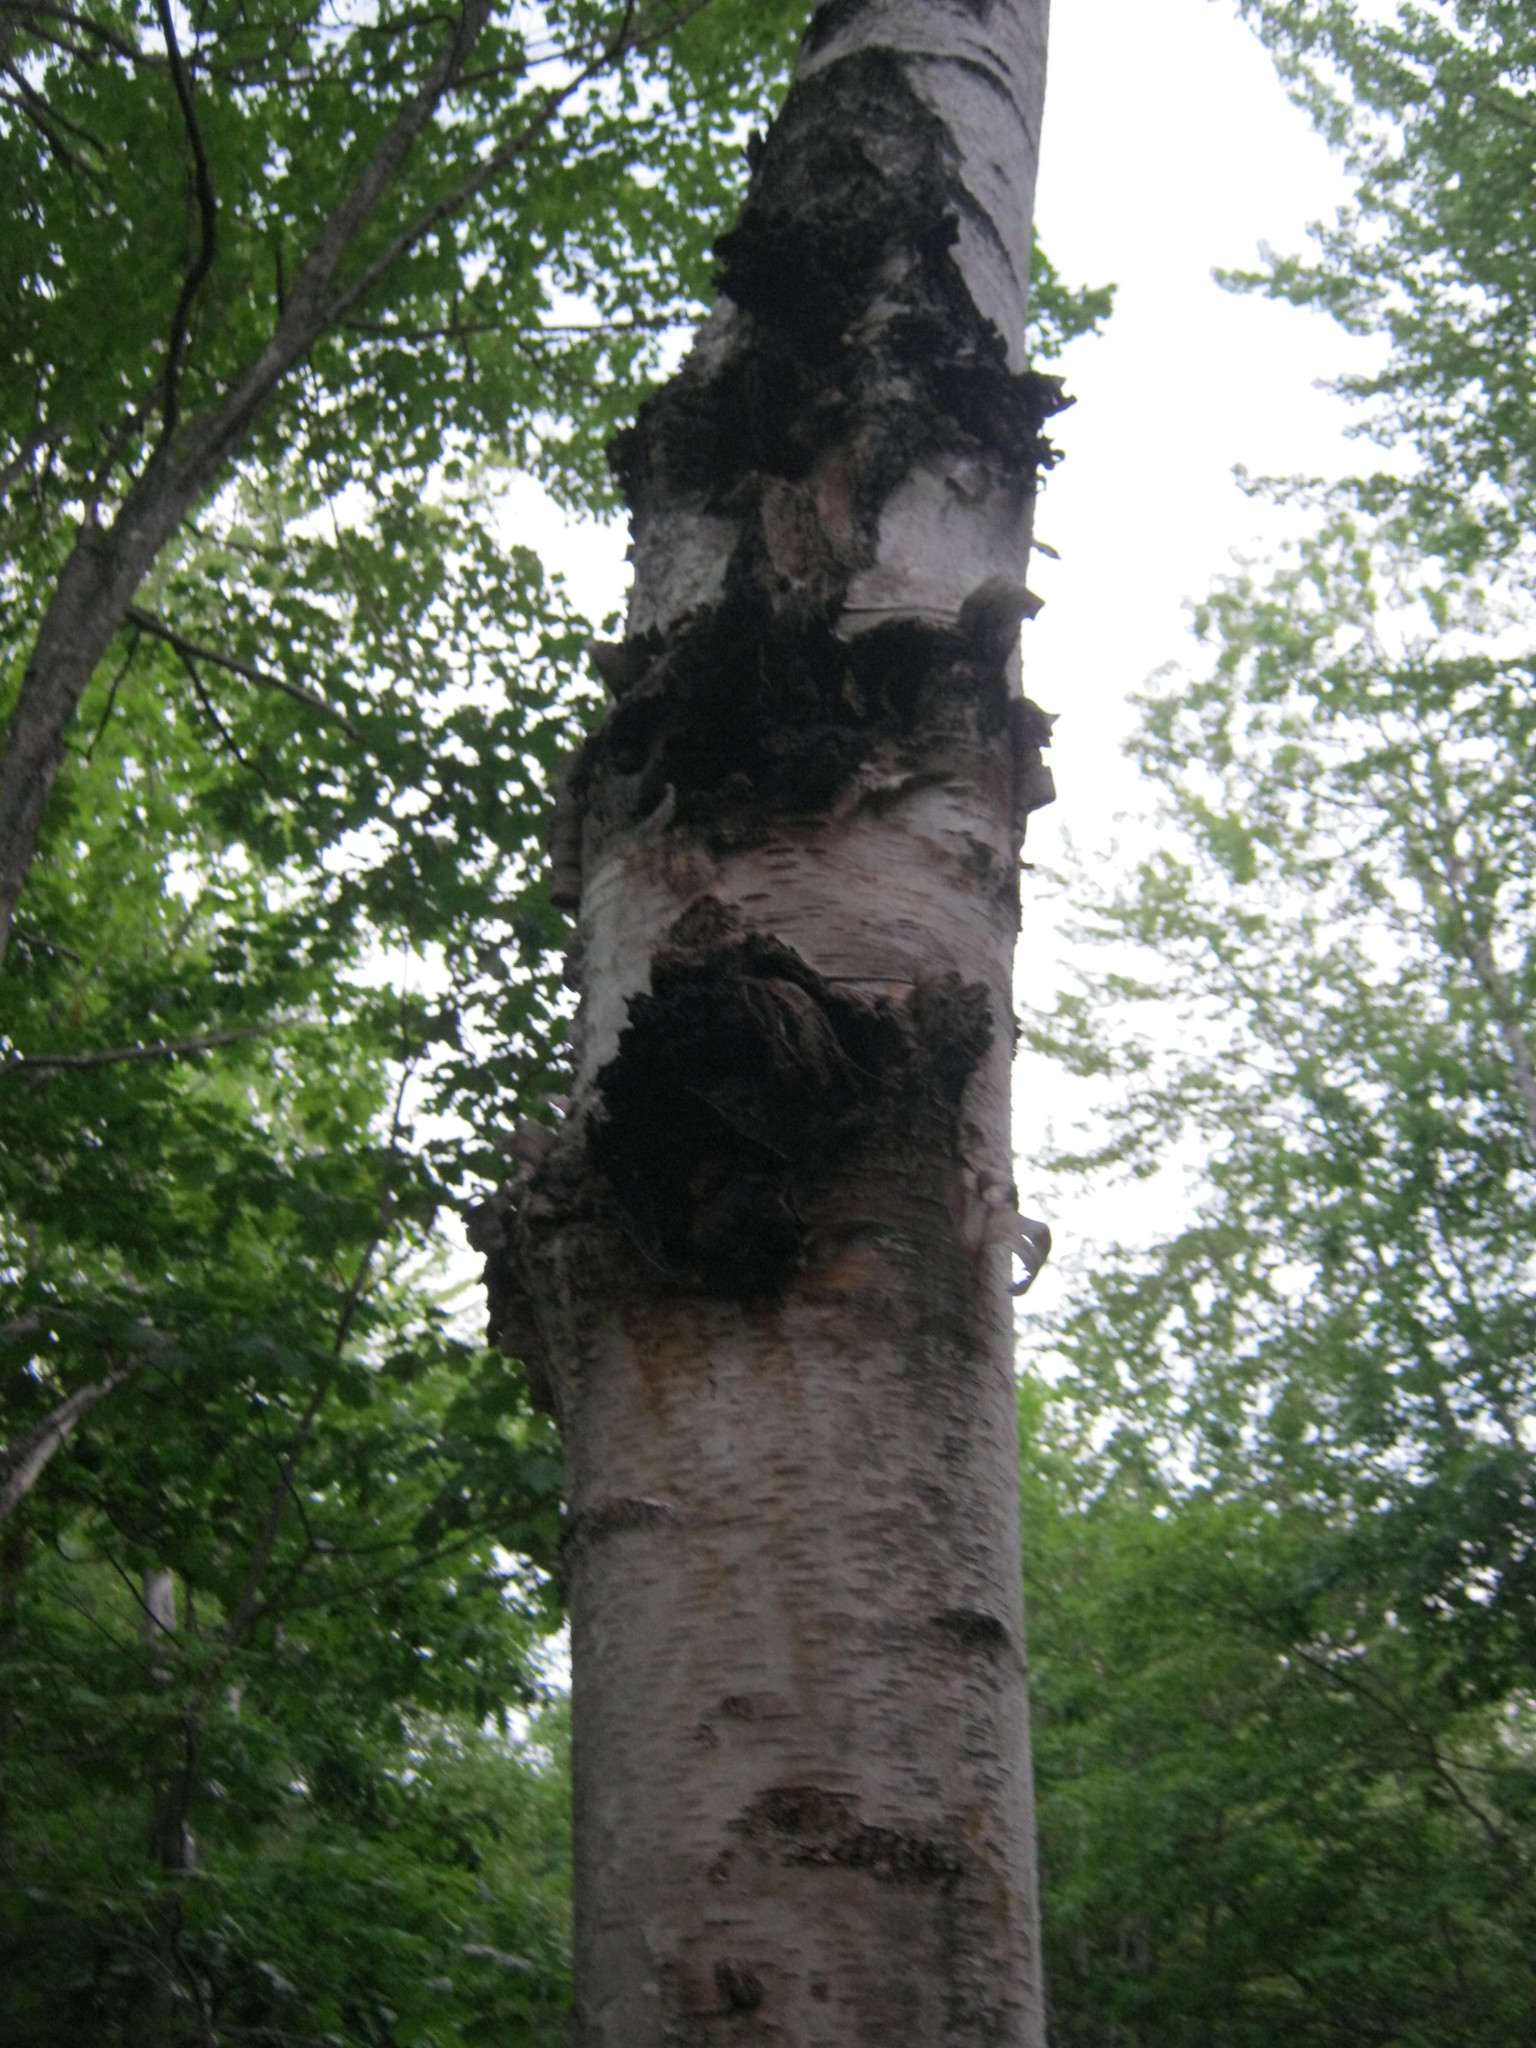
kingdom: Fungi
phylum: Basidiomycota
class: Agaricomycetes
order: Hymenochaetales
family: Hymenochaetaceae
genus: Inonotus
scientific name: Inonotus obliquus
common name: Chaga
